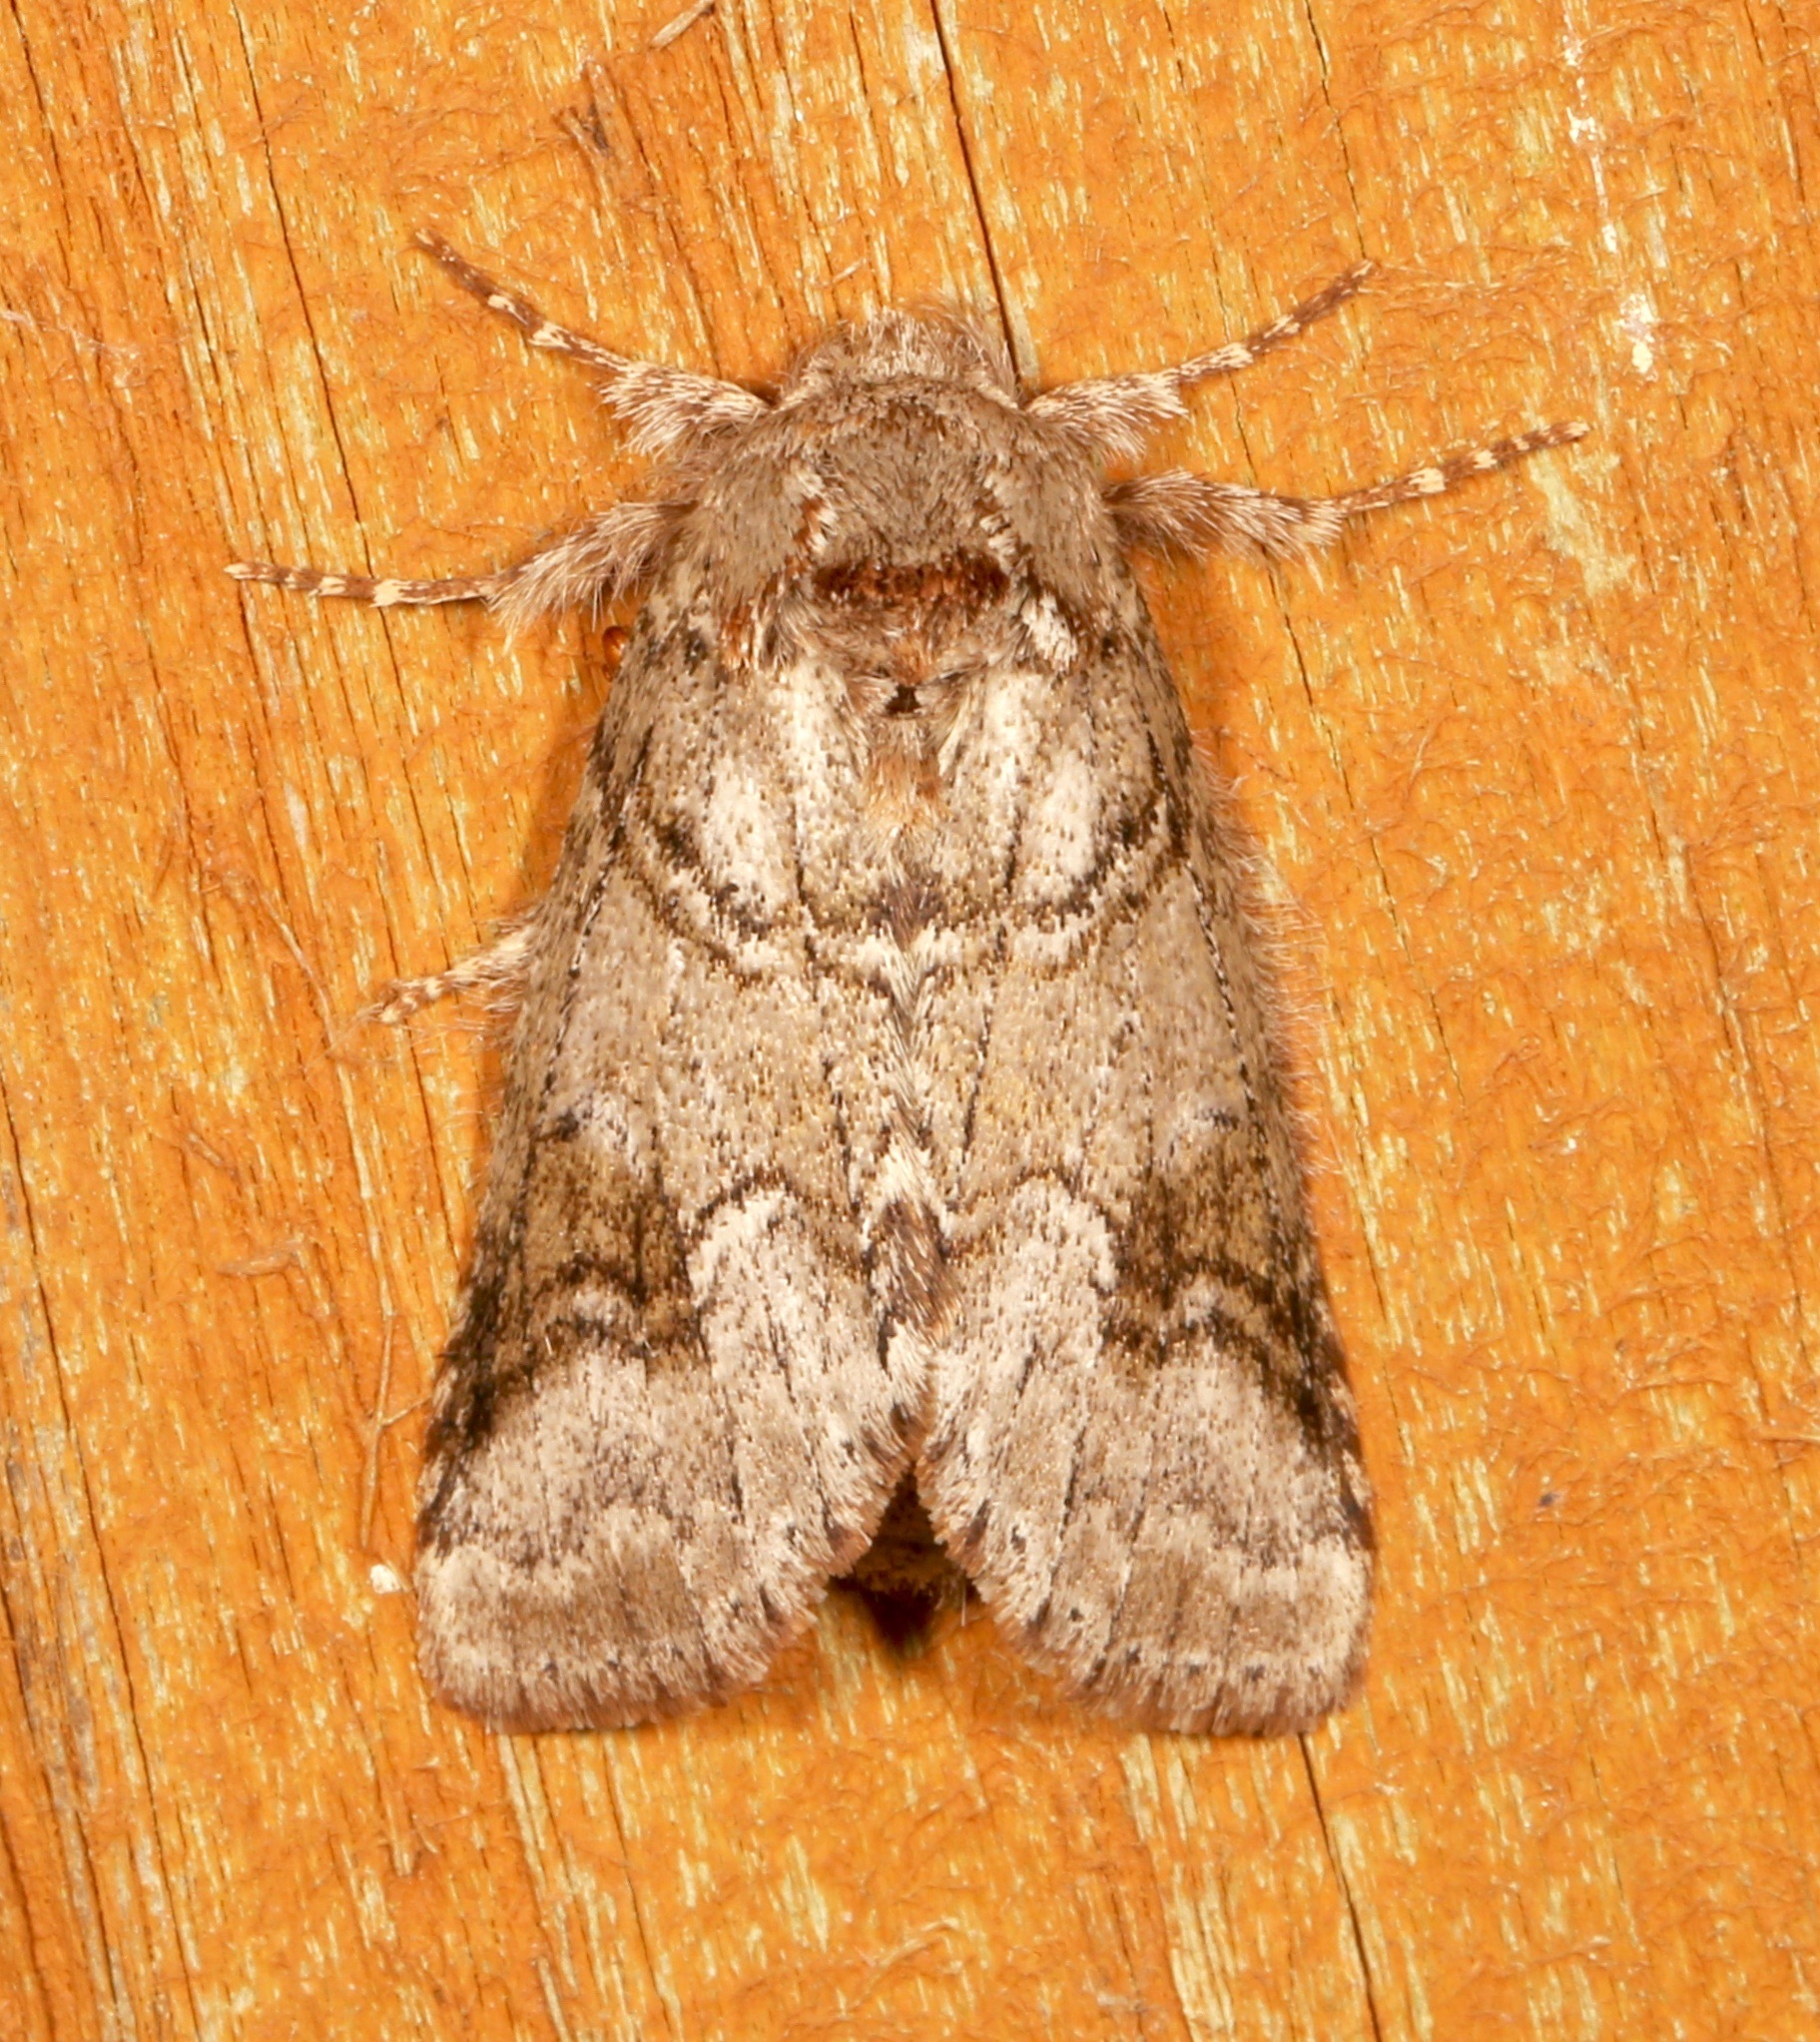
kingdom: Animalia
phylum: Arthropoda
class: Insecta
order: Lepidoptera
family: Notodontidae
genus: Lochmaeus
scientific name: Lochmaeus bilineata
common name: Double-lined prominent
